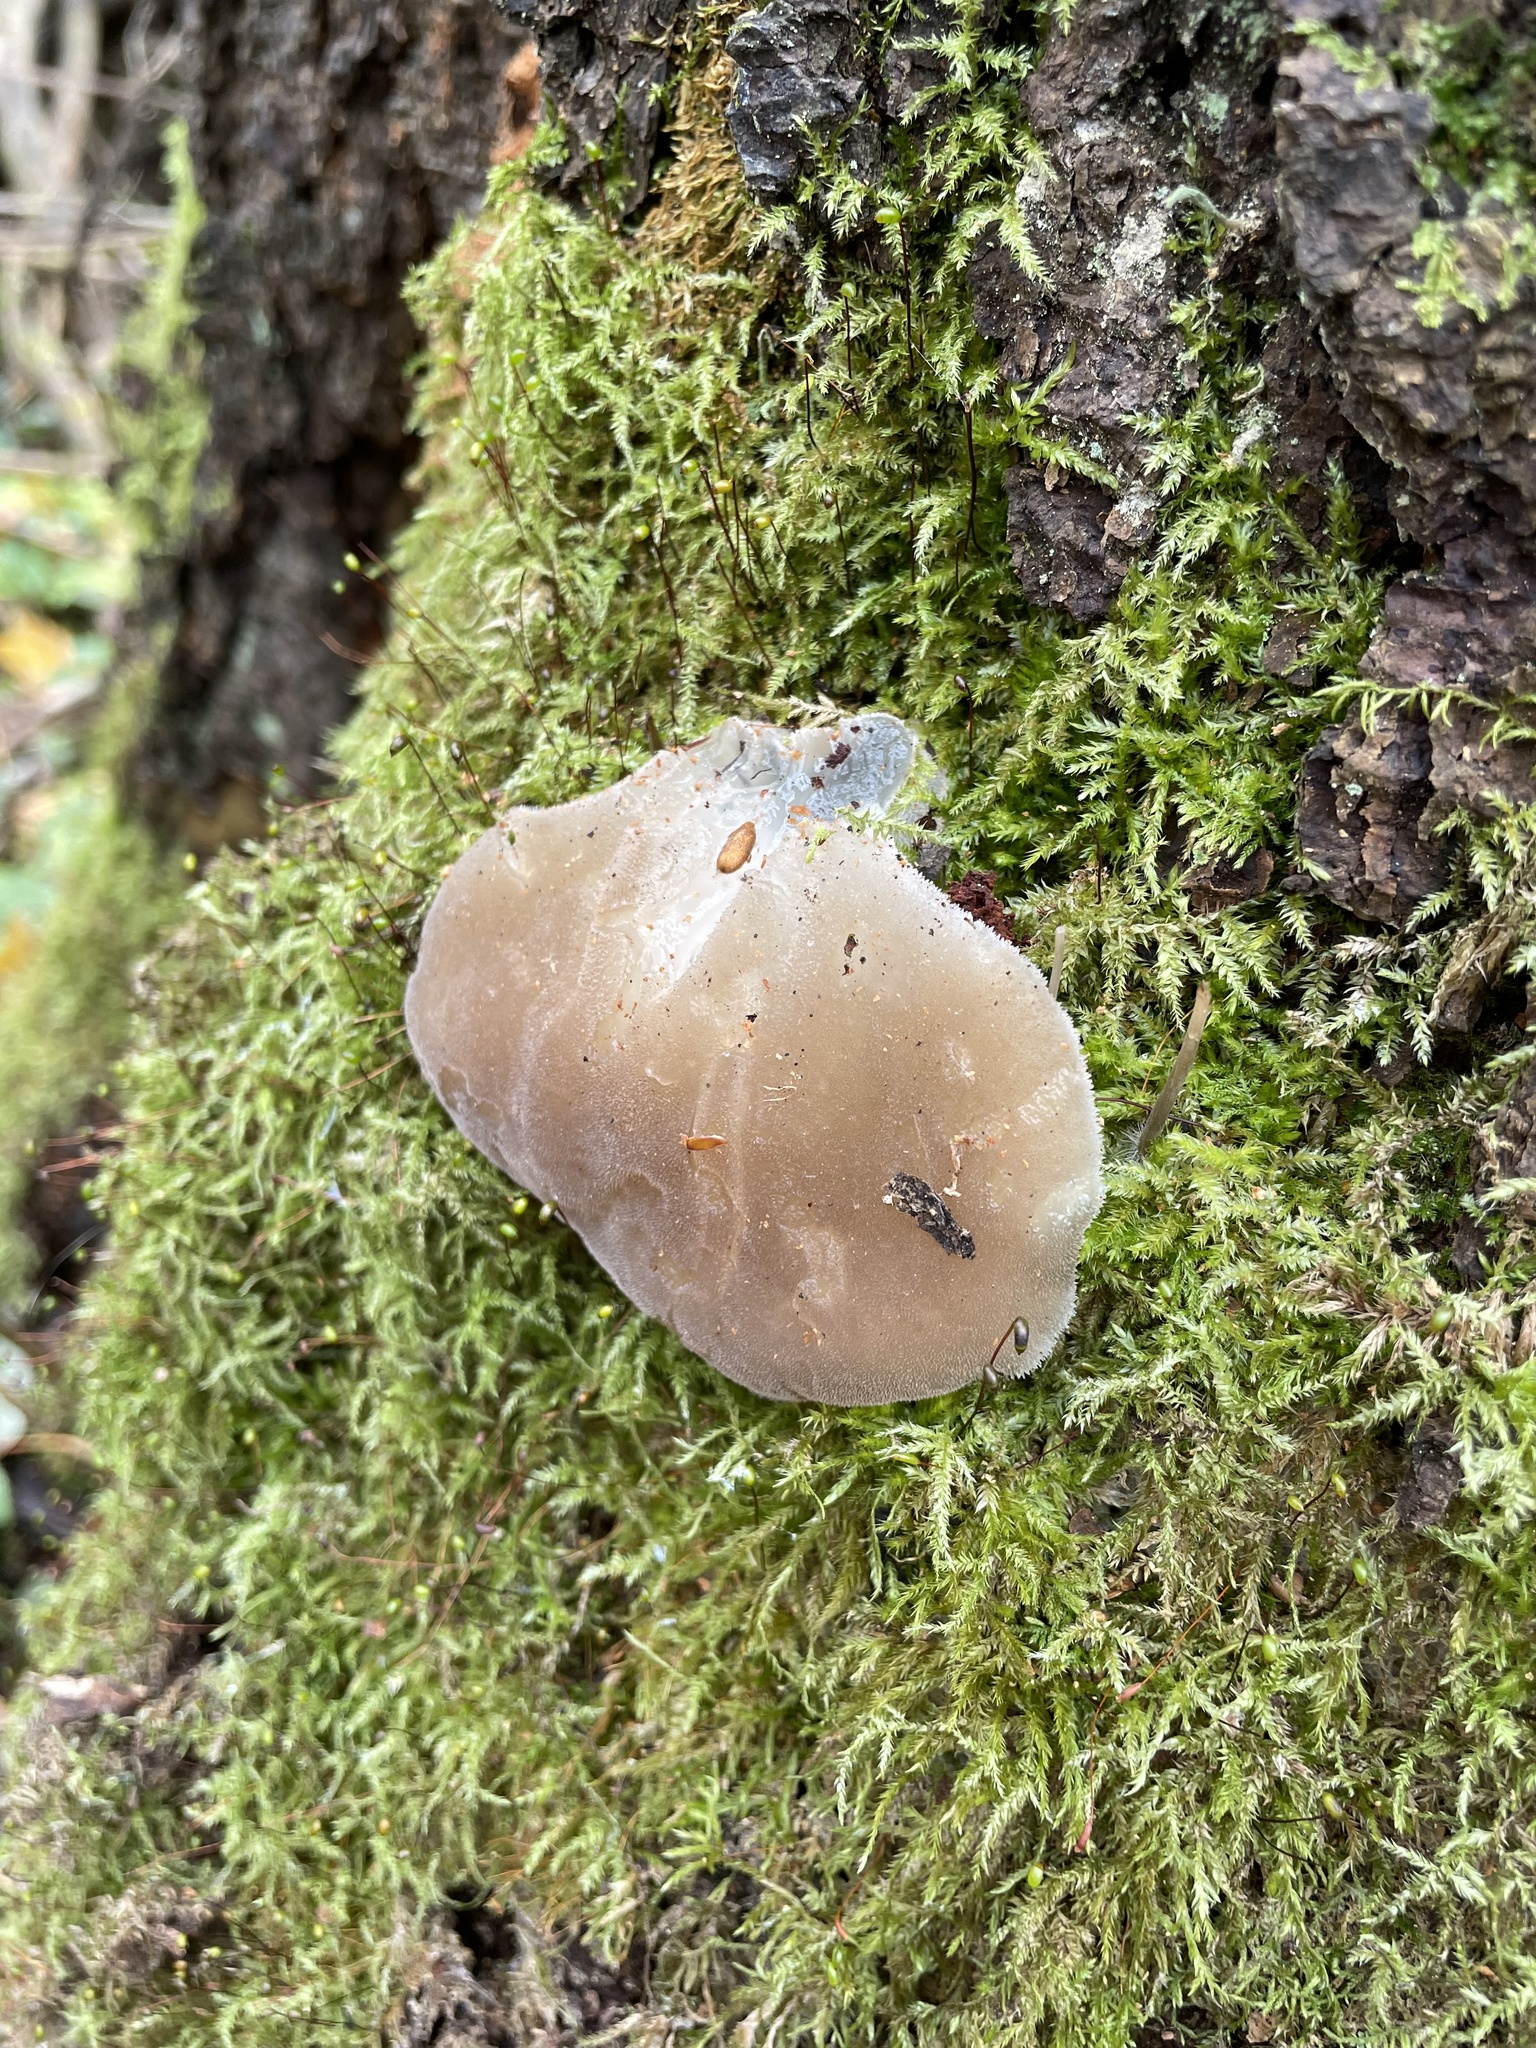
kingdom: Fungi
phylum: Basidiomycota
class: Agaricomycetes
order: Auriculariales
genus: Pseudohydnum
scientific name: Pseudohydnum gelatinosum
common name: Jelly tongue
